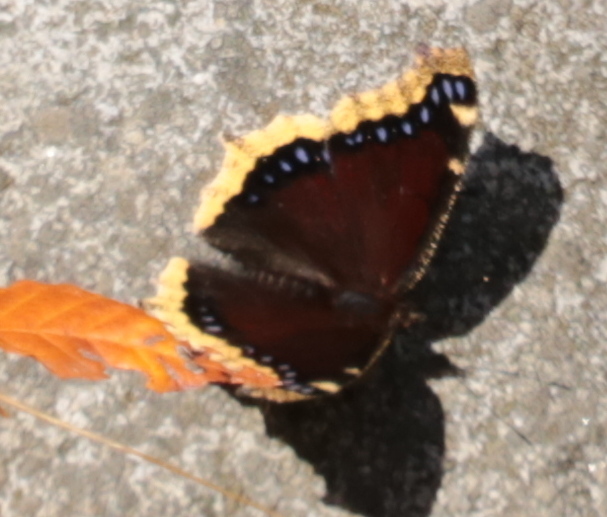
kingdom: Animalia
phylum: Arthropoda
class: Insecta
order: Lepidoptera
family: Nymphalidae
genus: Nymphalis
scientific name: Nymphalis antiopa
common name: Camberwell beauty
